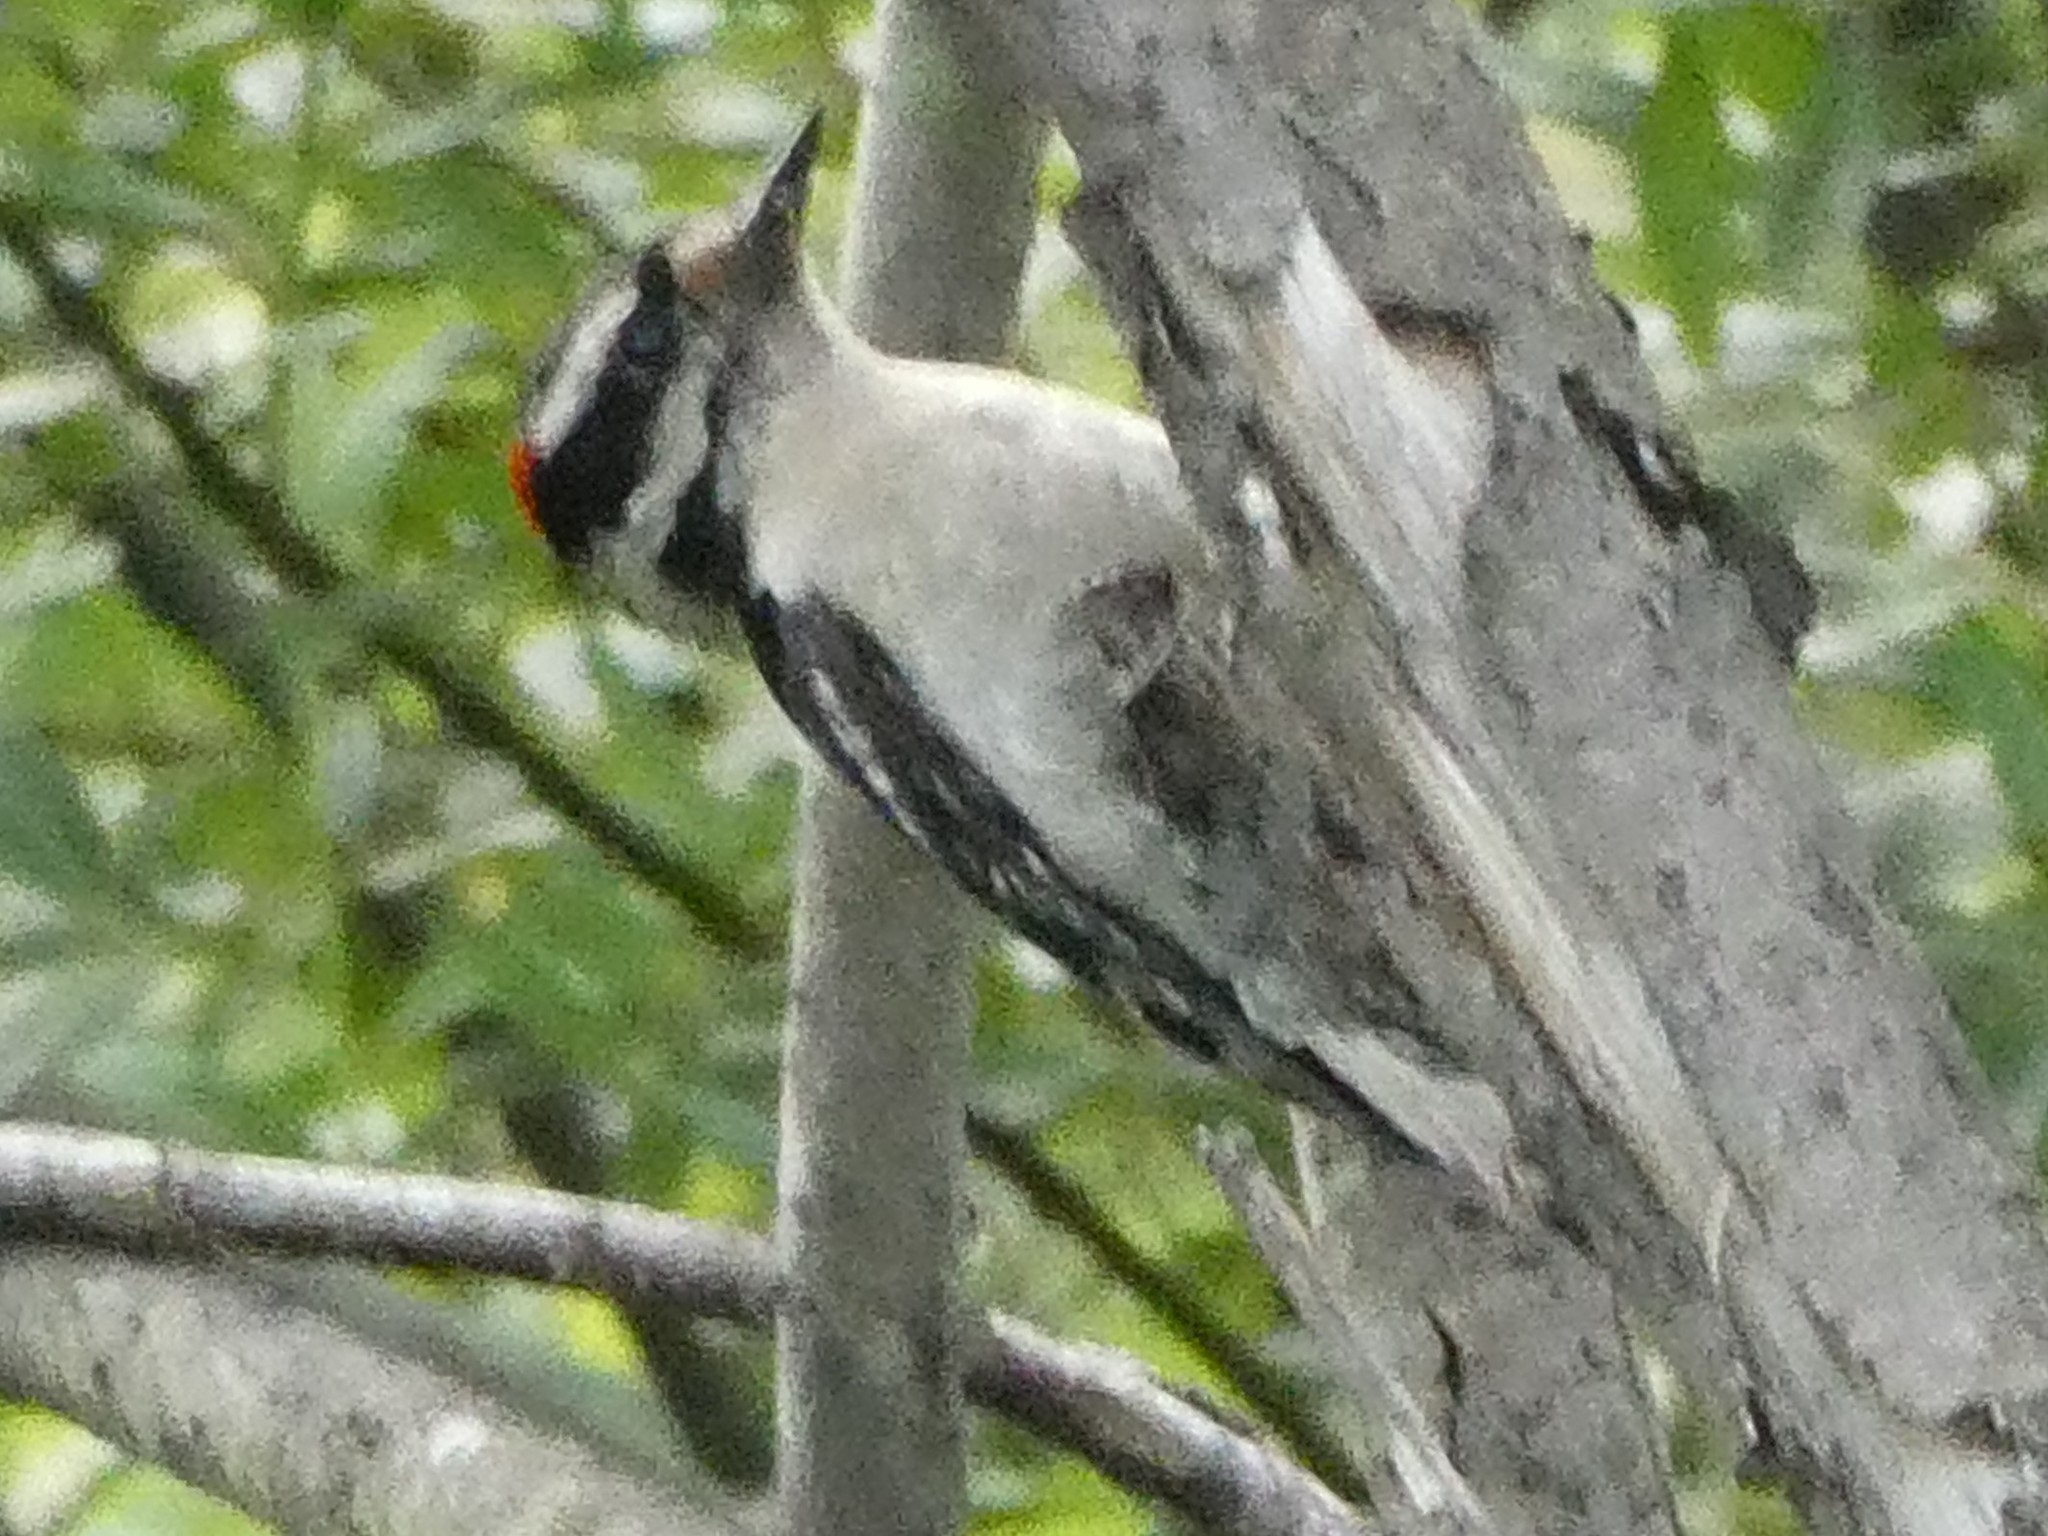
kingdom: Animalia
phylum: Chordata
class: Aves
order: Piciformes
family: Picidae
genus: Dryobates
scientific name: Dryobates pubescens
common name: Downy woodpecker
